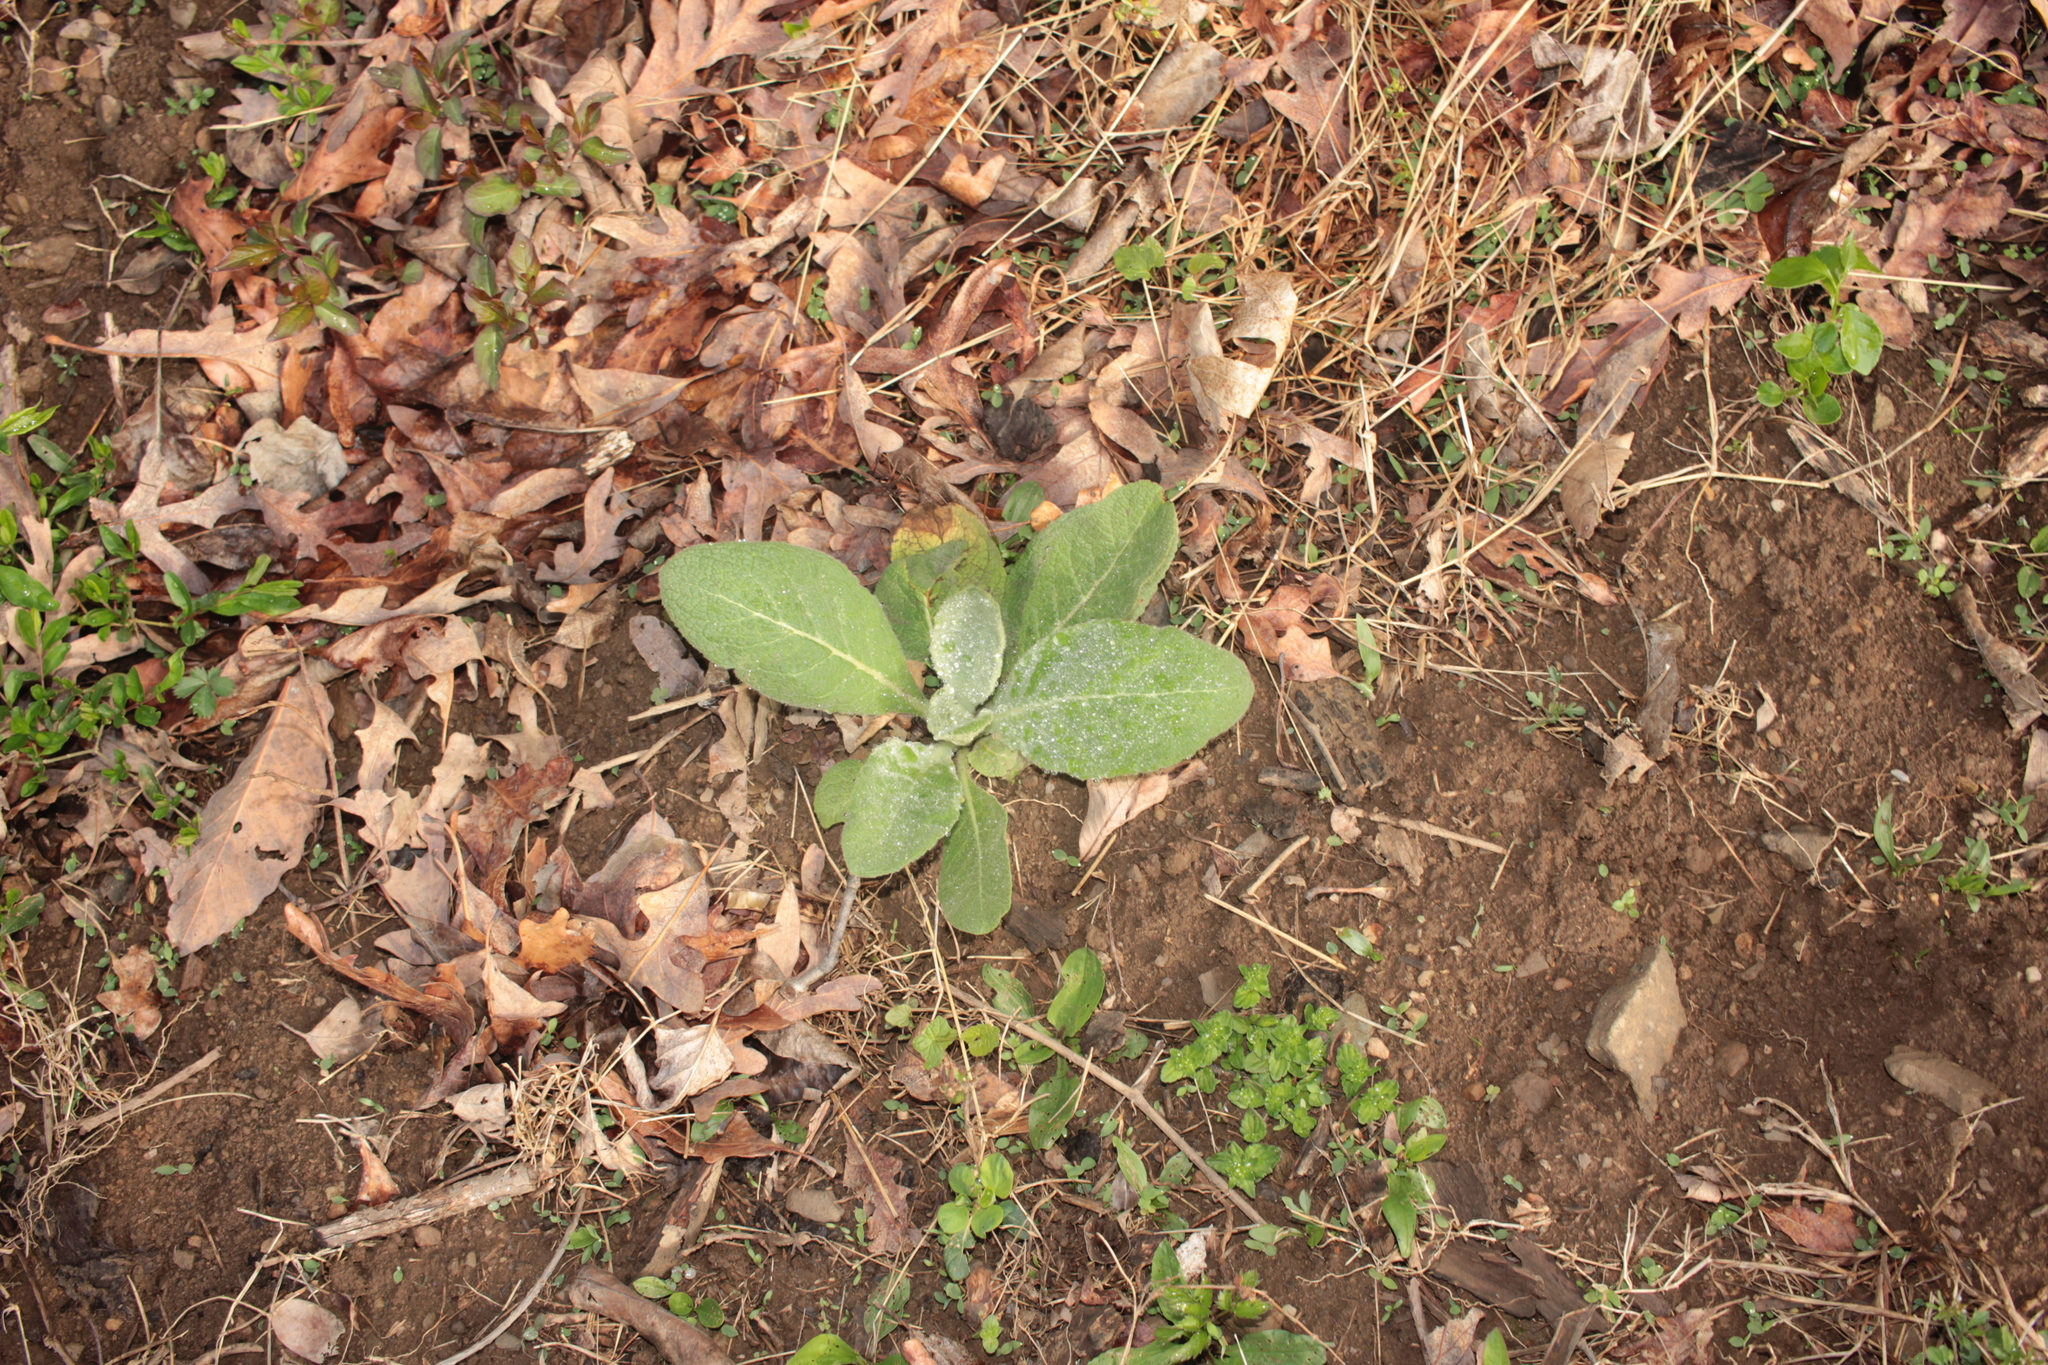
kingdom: Plantae
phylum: Tracheophyta
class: Magnoliopsida
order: Lamiales
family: Plantaginaceae
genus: Veronica
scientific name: Veronica arvensis
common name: Corn speedwell
